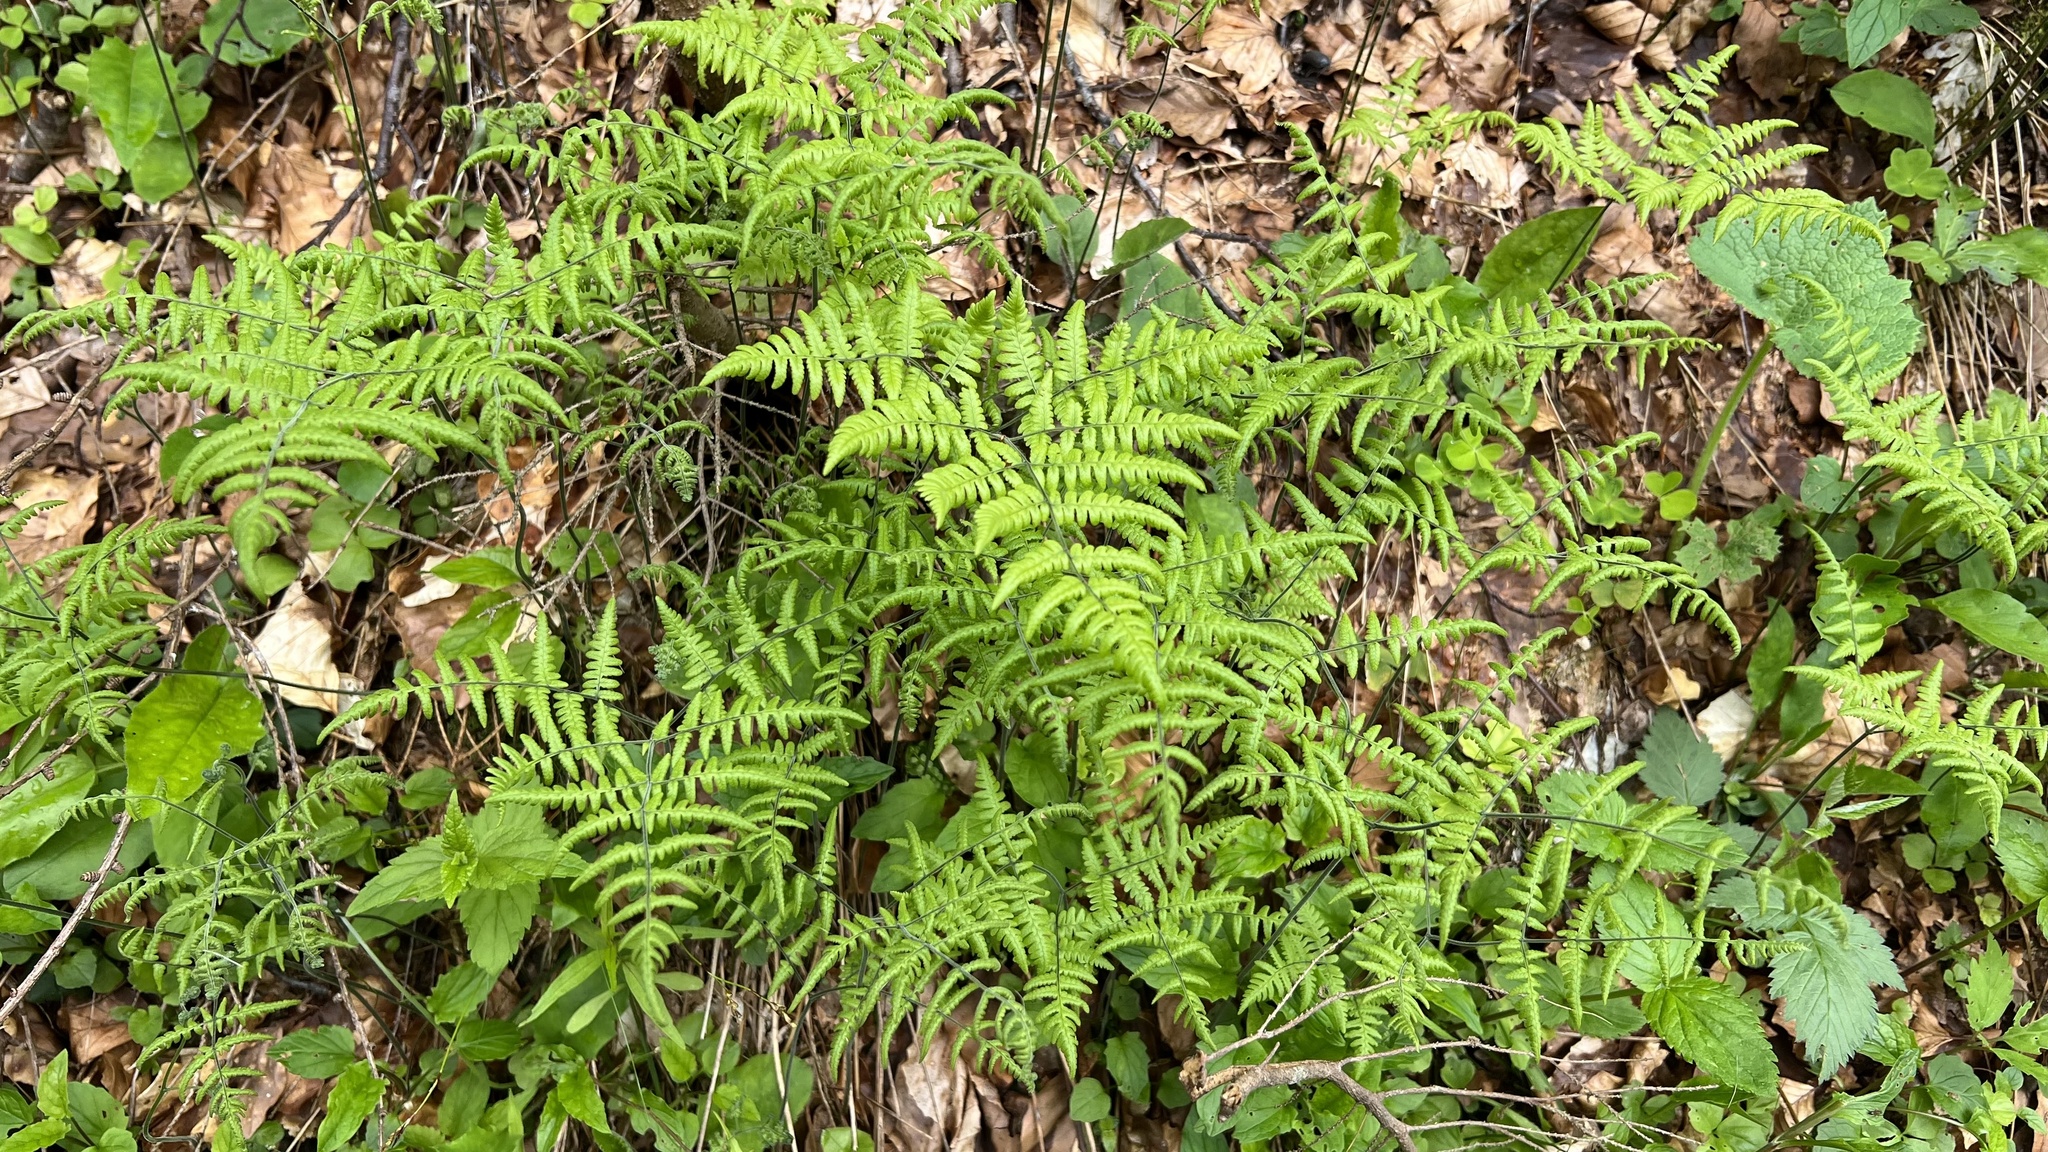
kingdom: Plantae
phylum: Tracheophyta
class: Polypodiopsida
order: Polypodiales
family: Cystopteridaceae
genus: Gymnocarpium
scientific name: Gymnocarpium robertianum
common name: Limestone fern
